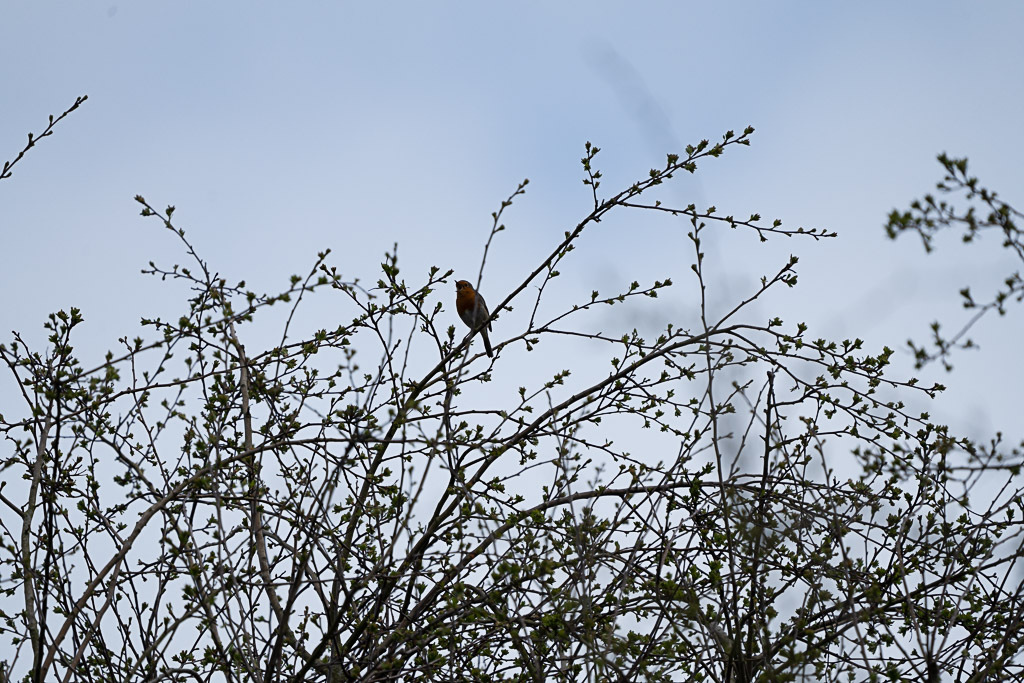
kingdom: Animalia
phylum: Chordata
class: Aves
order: Passeriformes
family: Muscicapidae
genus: Erithacus
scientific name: Erithacus rubecula
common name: European robin
